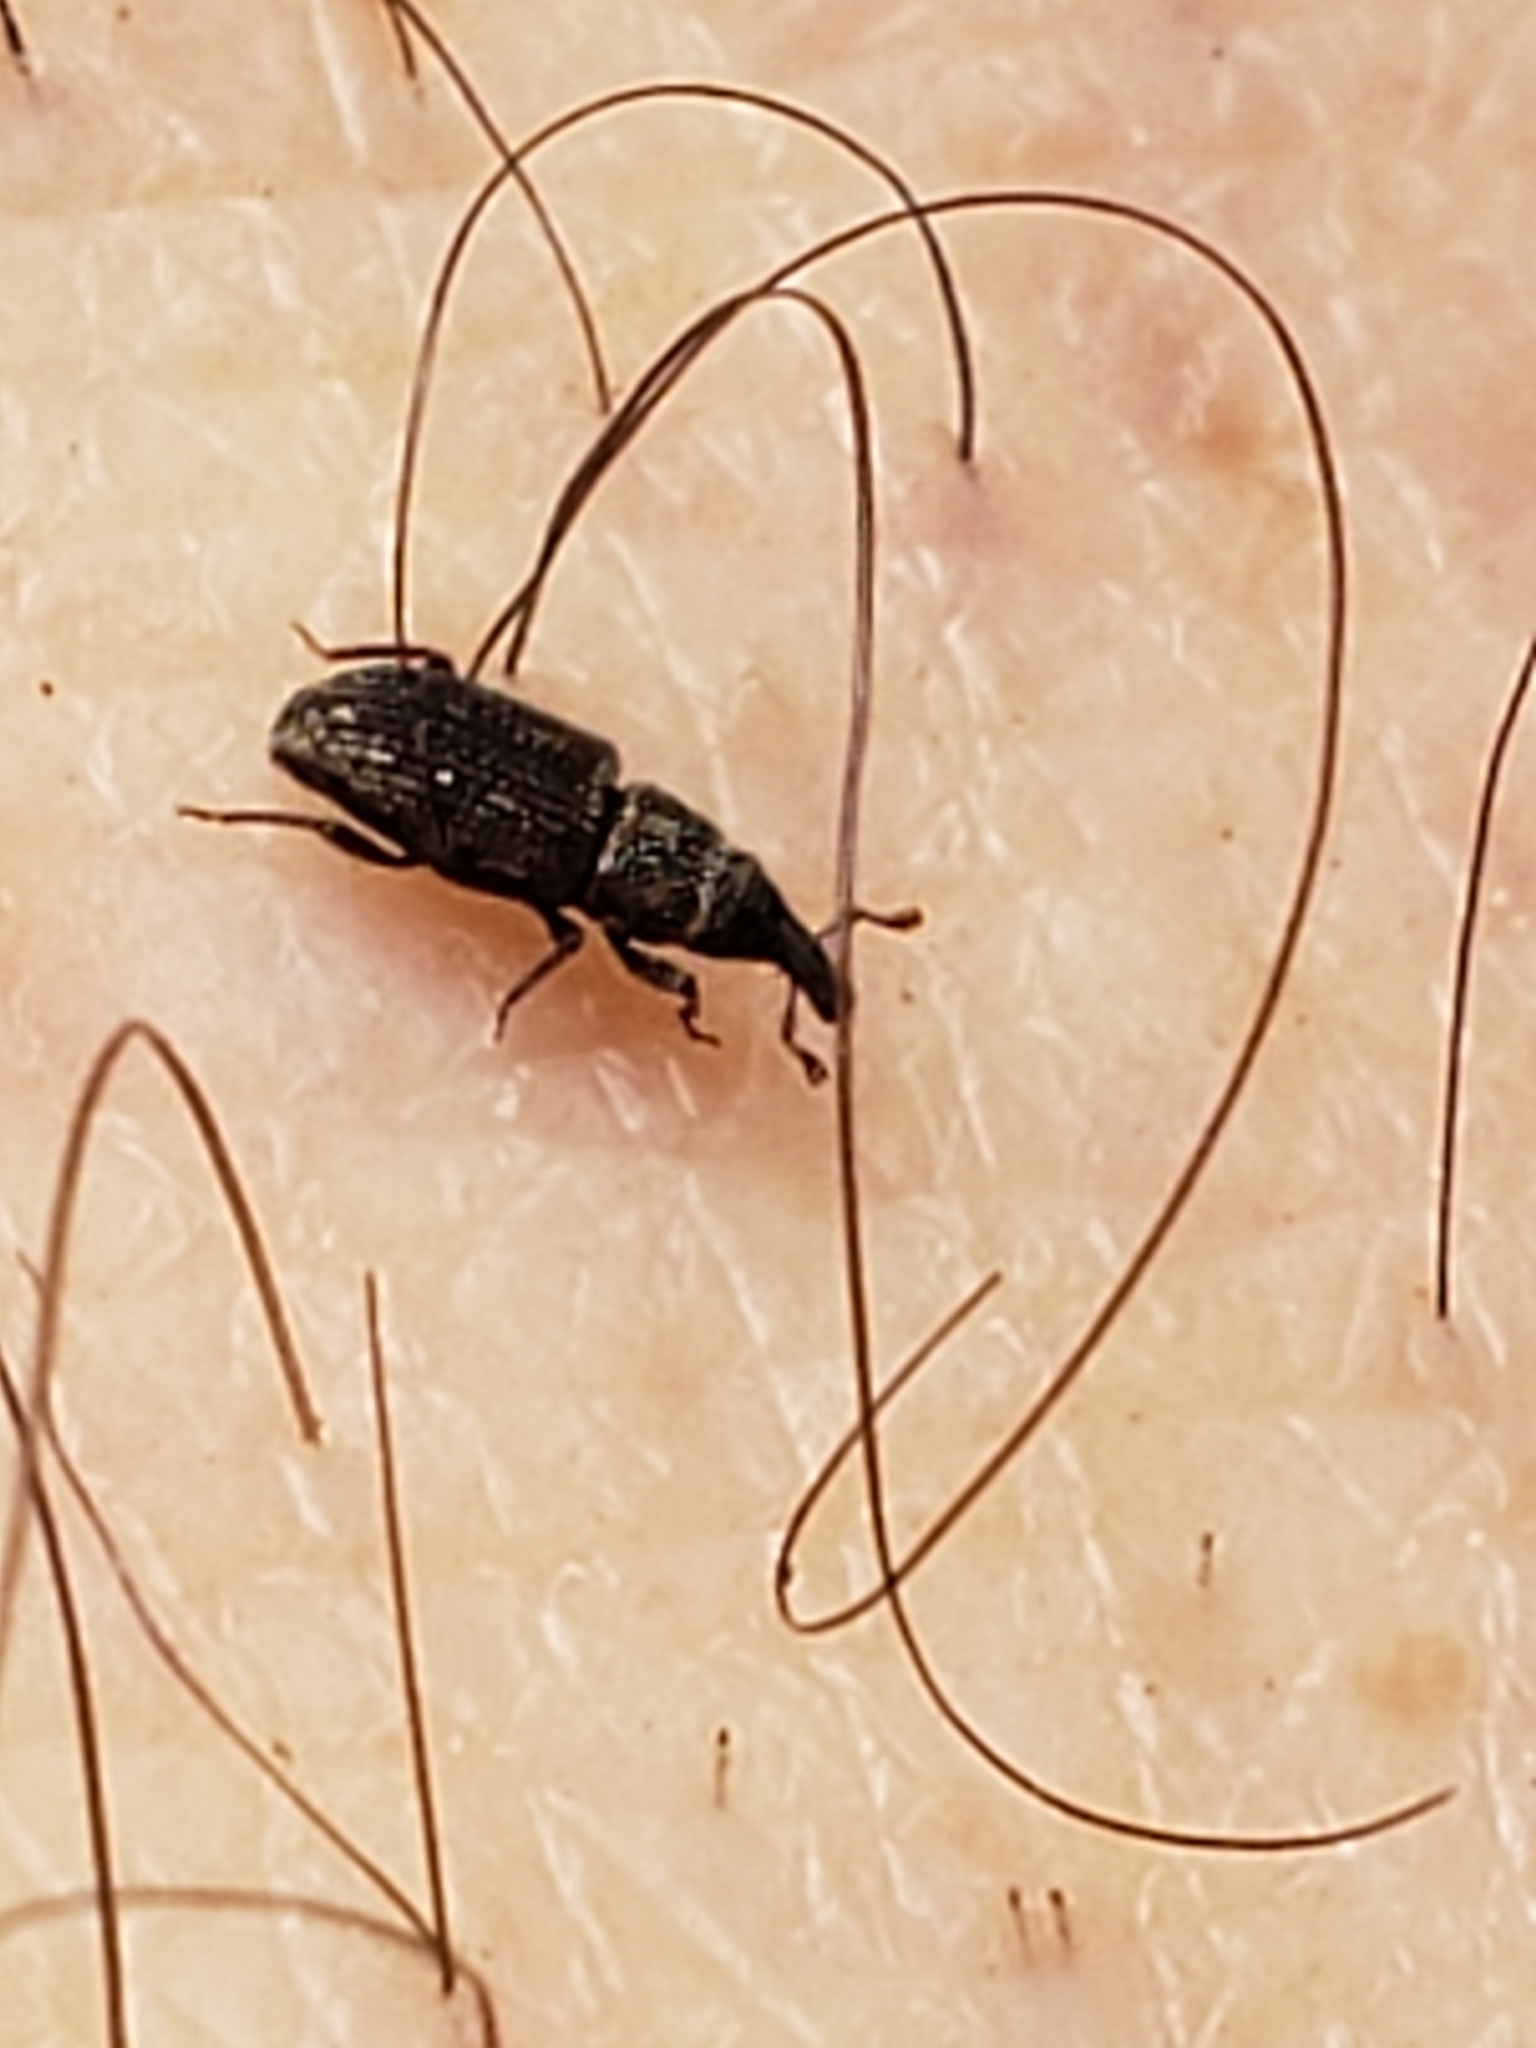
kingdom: Animalia
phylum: Arthropoda
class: Insecta
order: Coleoptera
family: Dryophthoridae
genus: Dryophthorus
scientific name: Dryophthorus americanus
